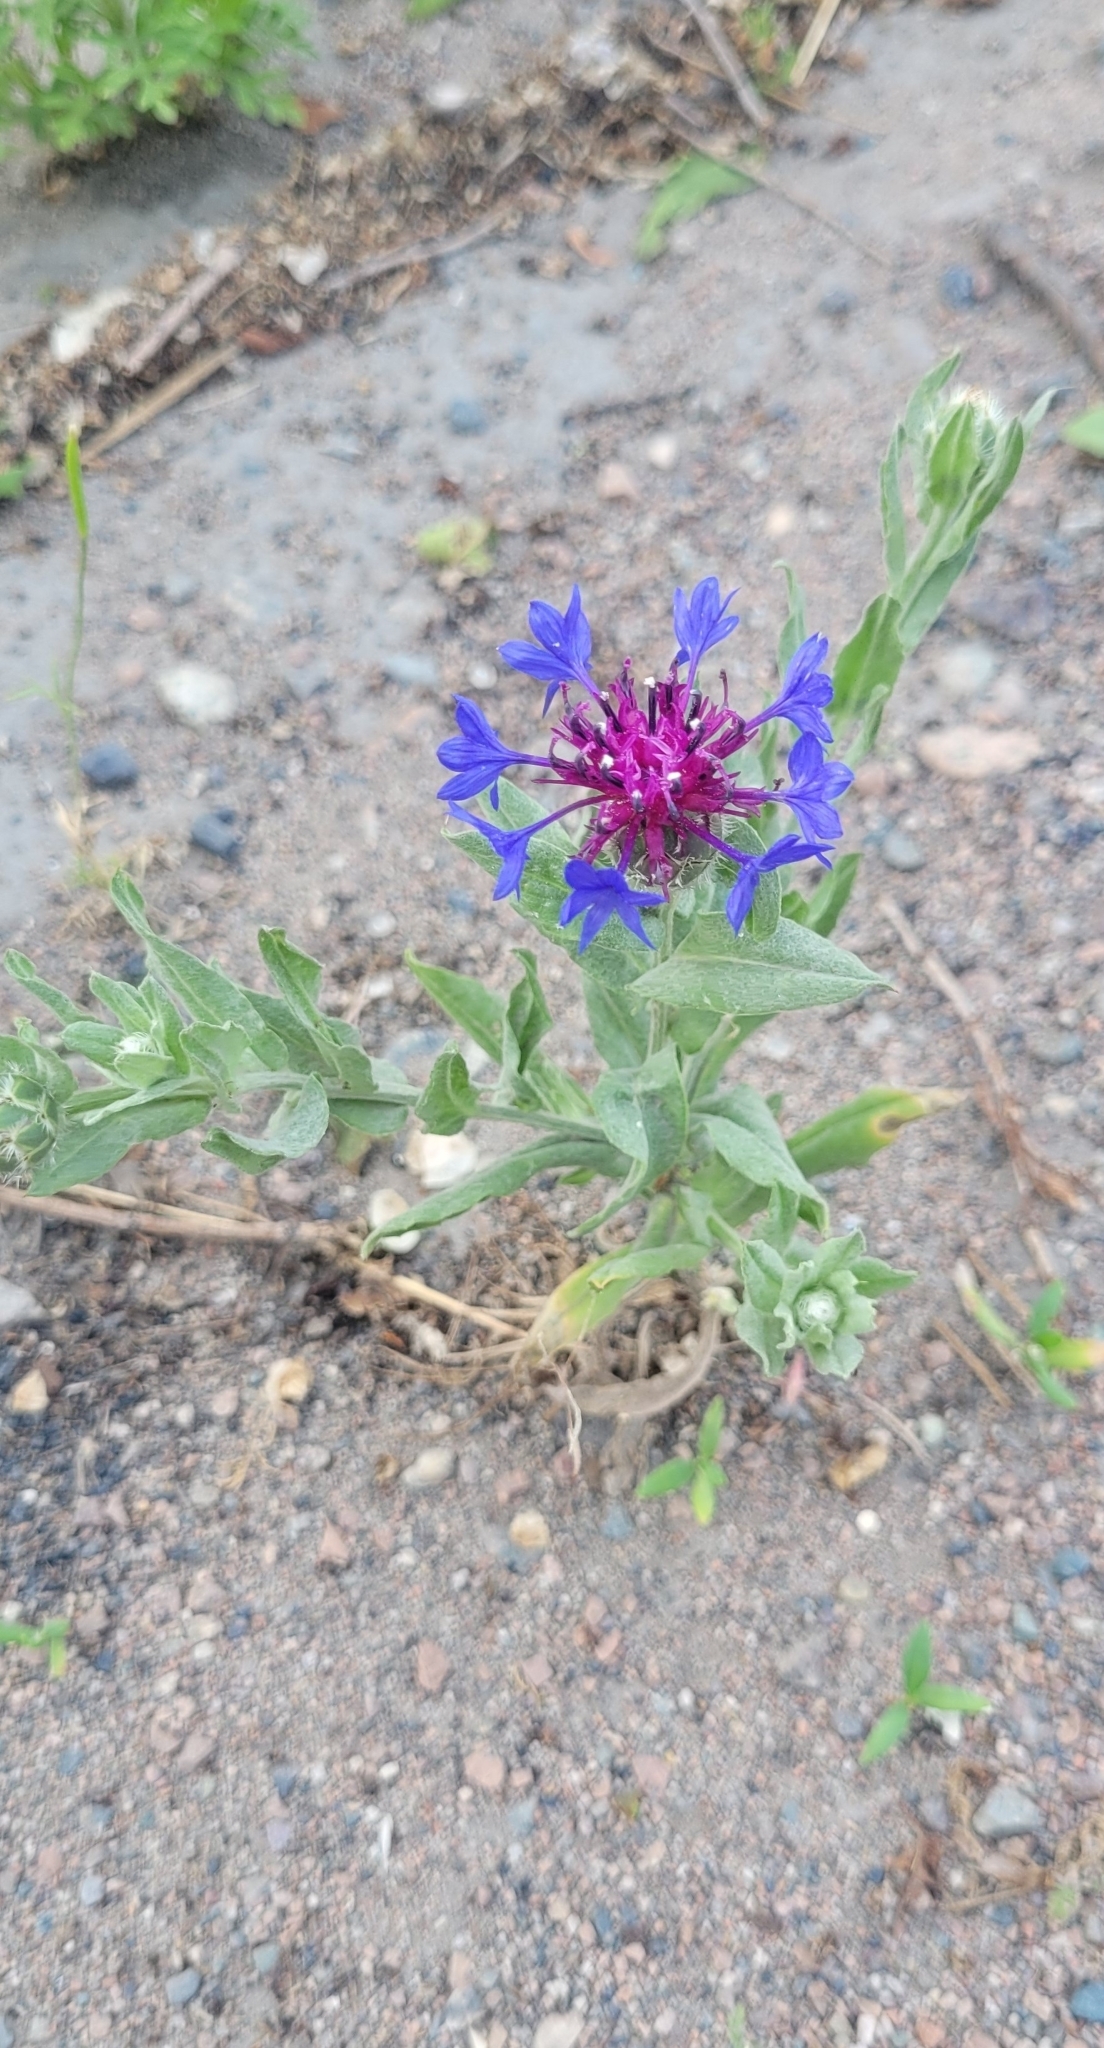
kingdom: Plantae
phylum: Tracheophyta
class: Magnoliopsida
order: Asterales
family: Asteraceae
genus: Centaurea
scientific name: Centaurea depressa
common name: Iranian knapweed
